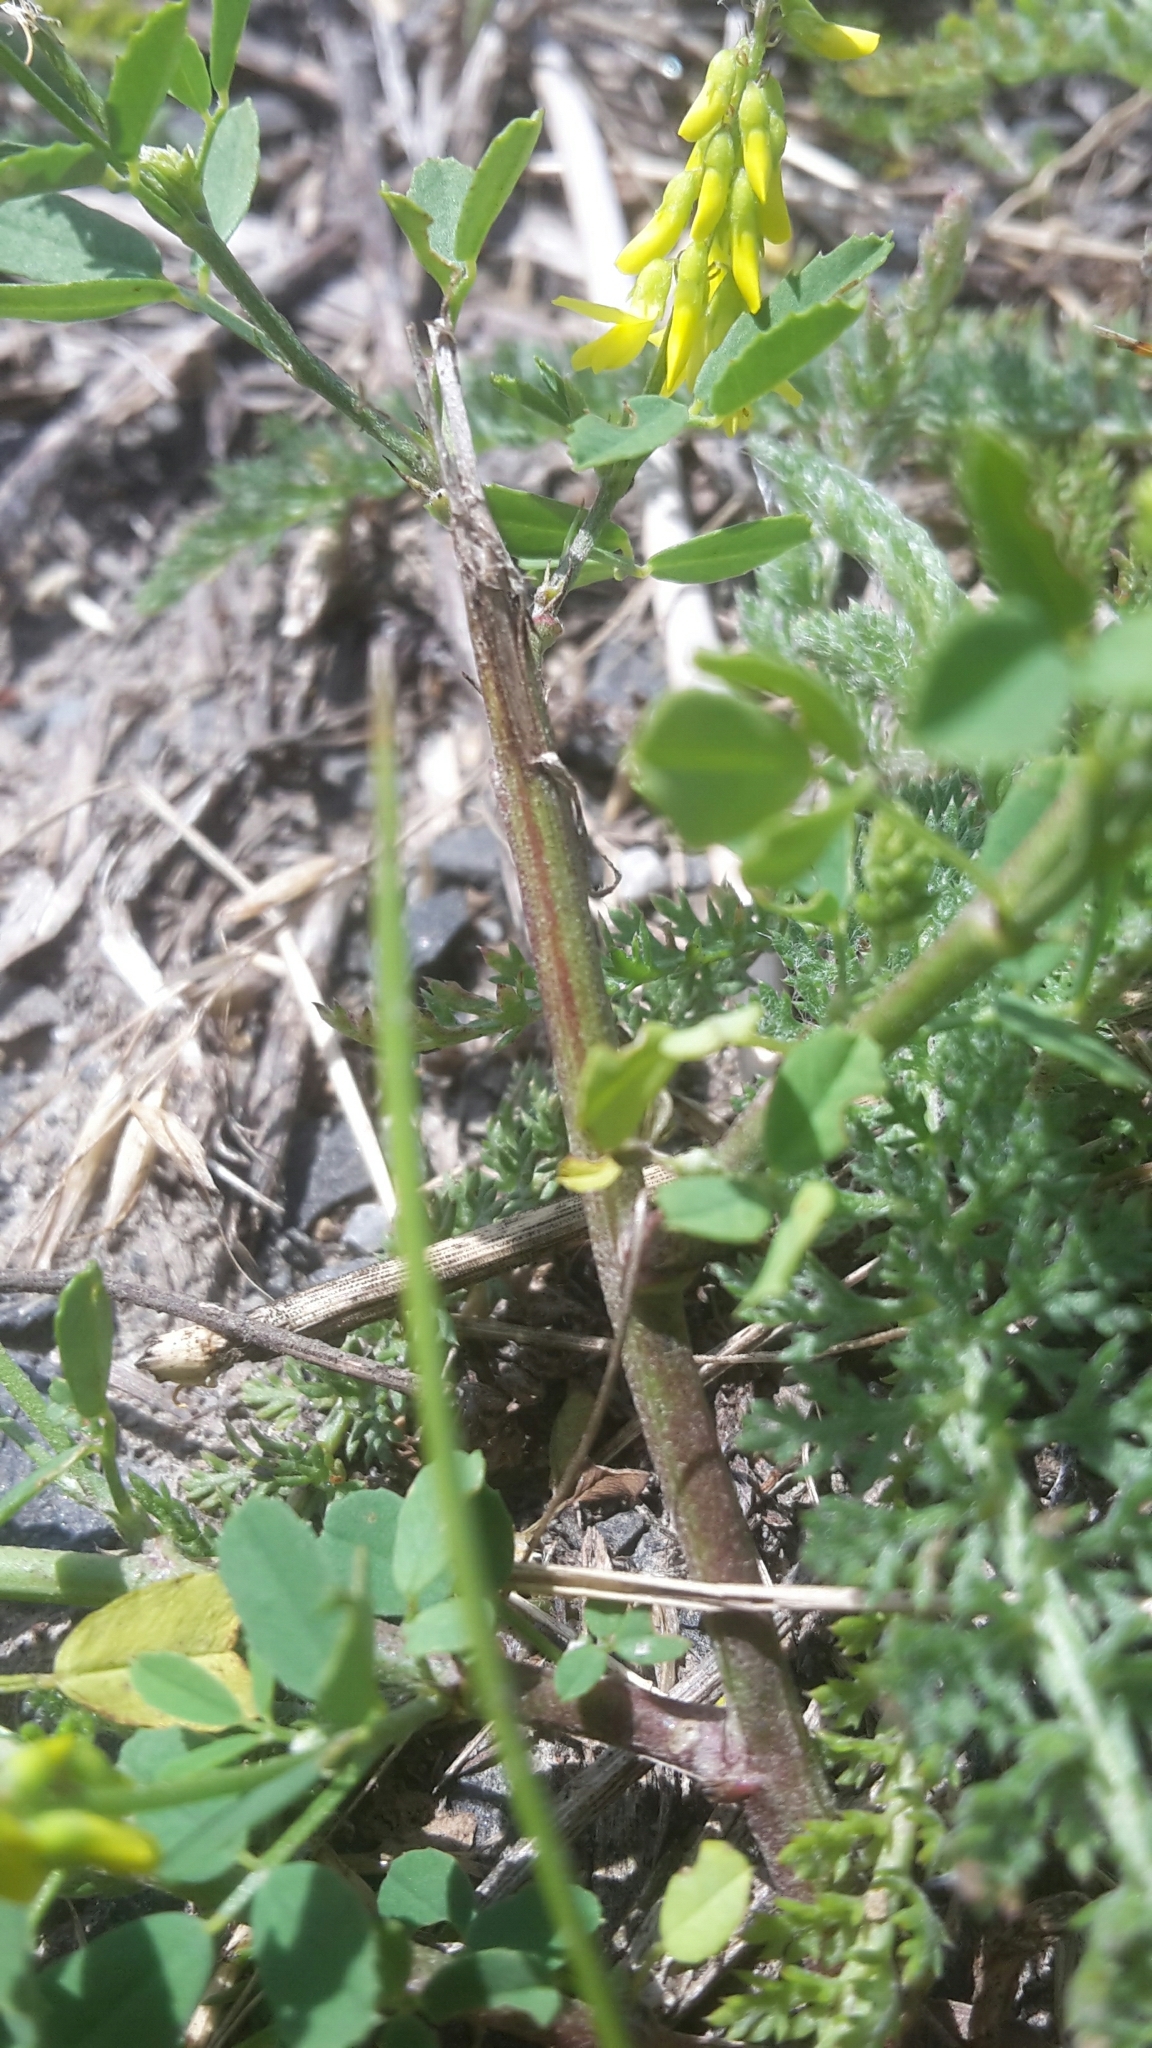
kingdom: Plantae
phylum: Tracheophyta
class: Magnoliopsida
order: Fabales
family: Fabaceae
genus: Melilotus
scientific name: Melilotus officinalis
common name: Sweetclover
